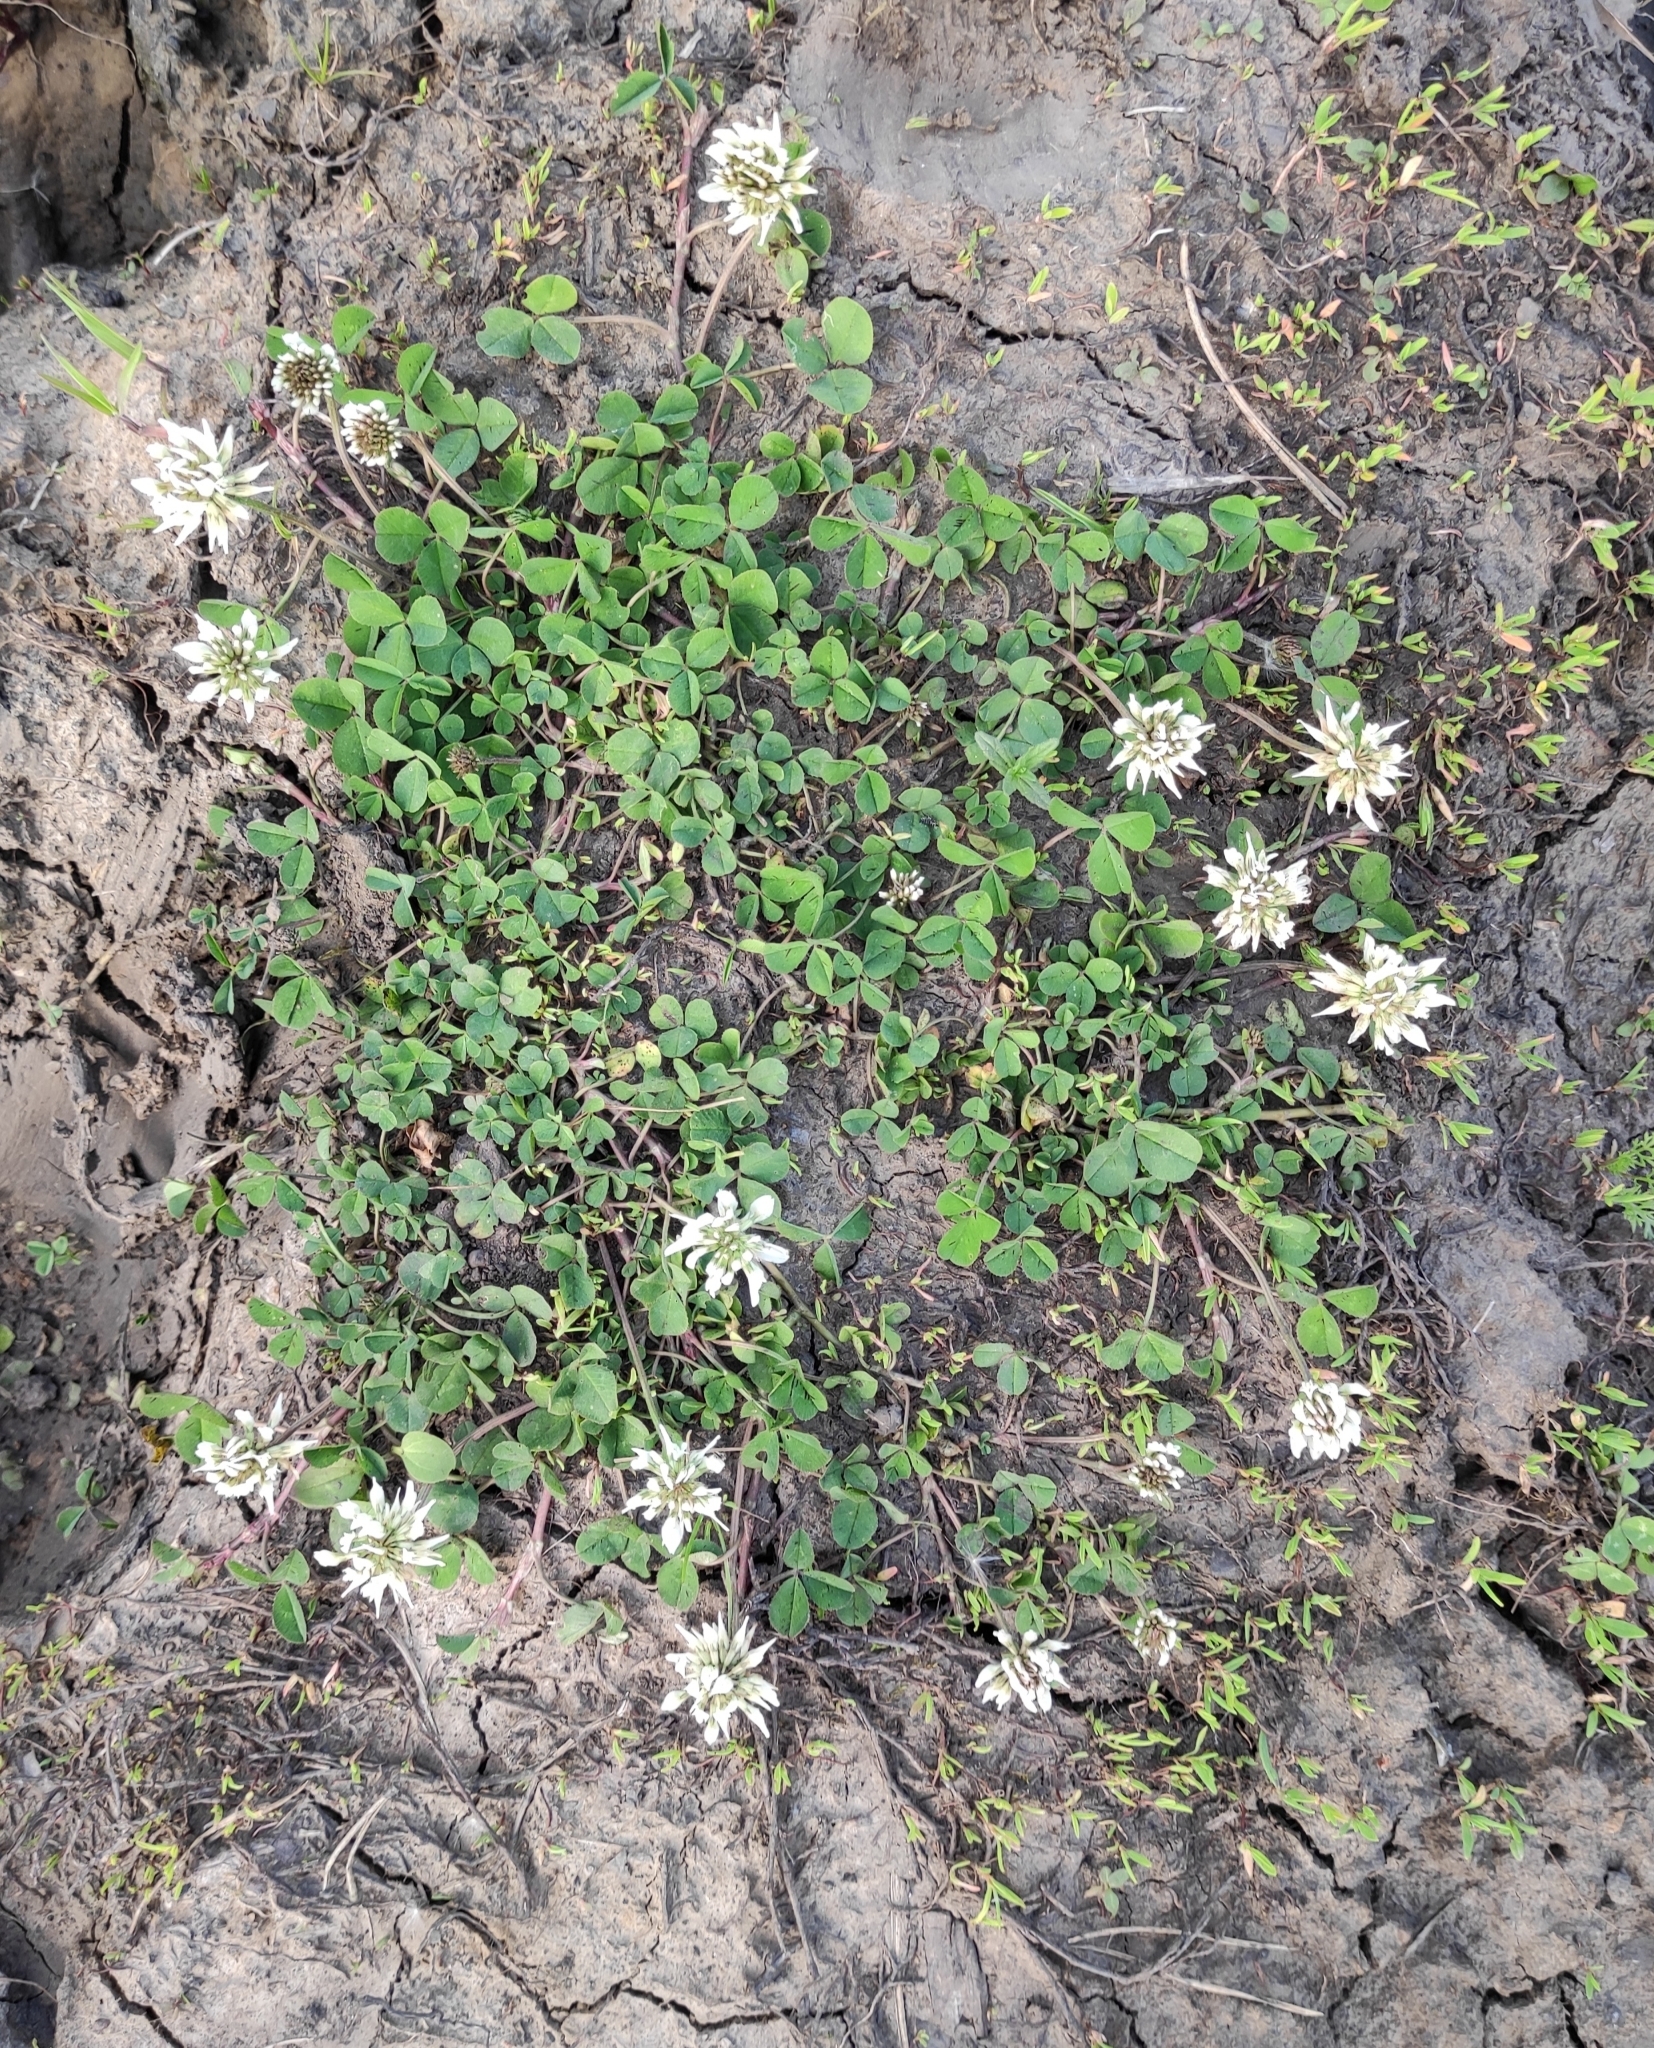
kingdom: Plantae
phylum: Tracheophyta
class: Magnoliopsida
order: Fabales
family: Fabaceae
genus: Trifolium
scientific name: Trifolium repens
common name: White clover
